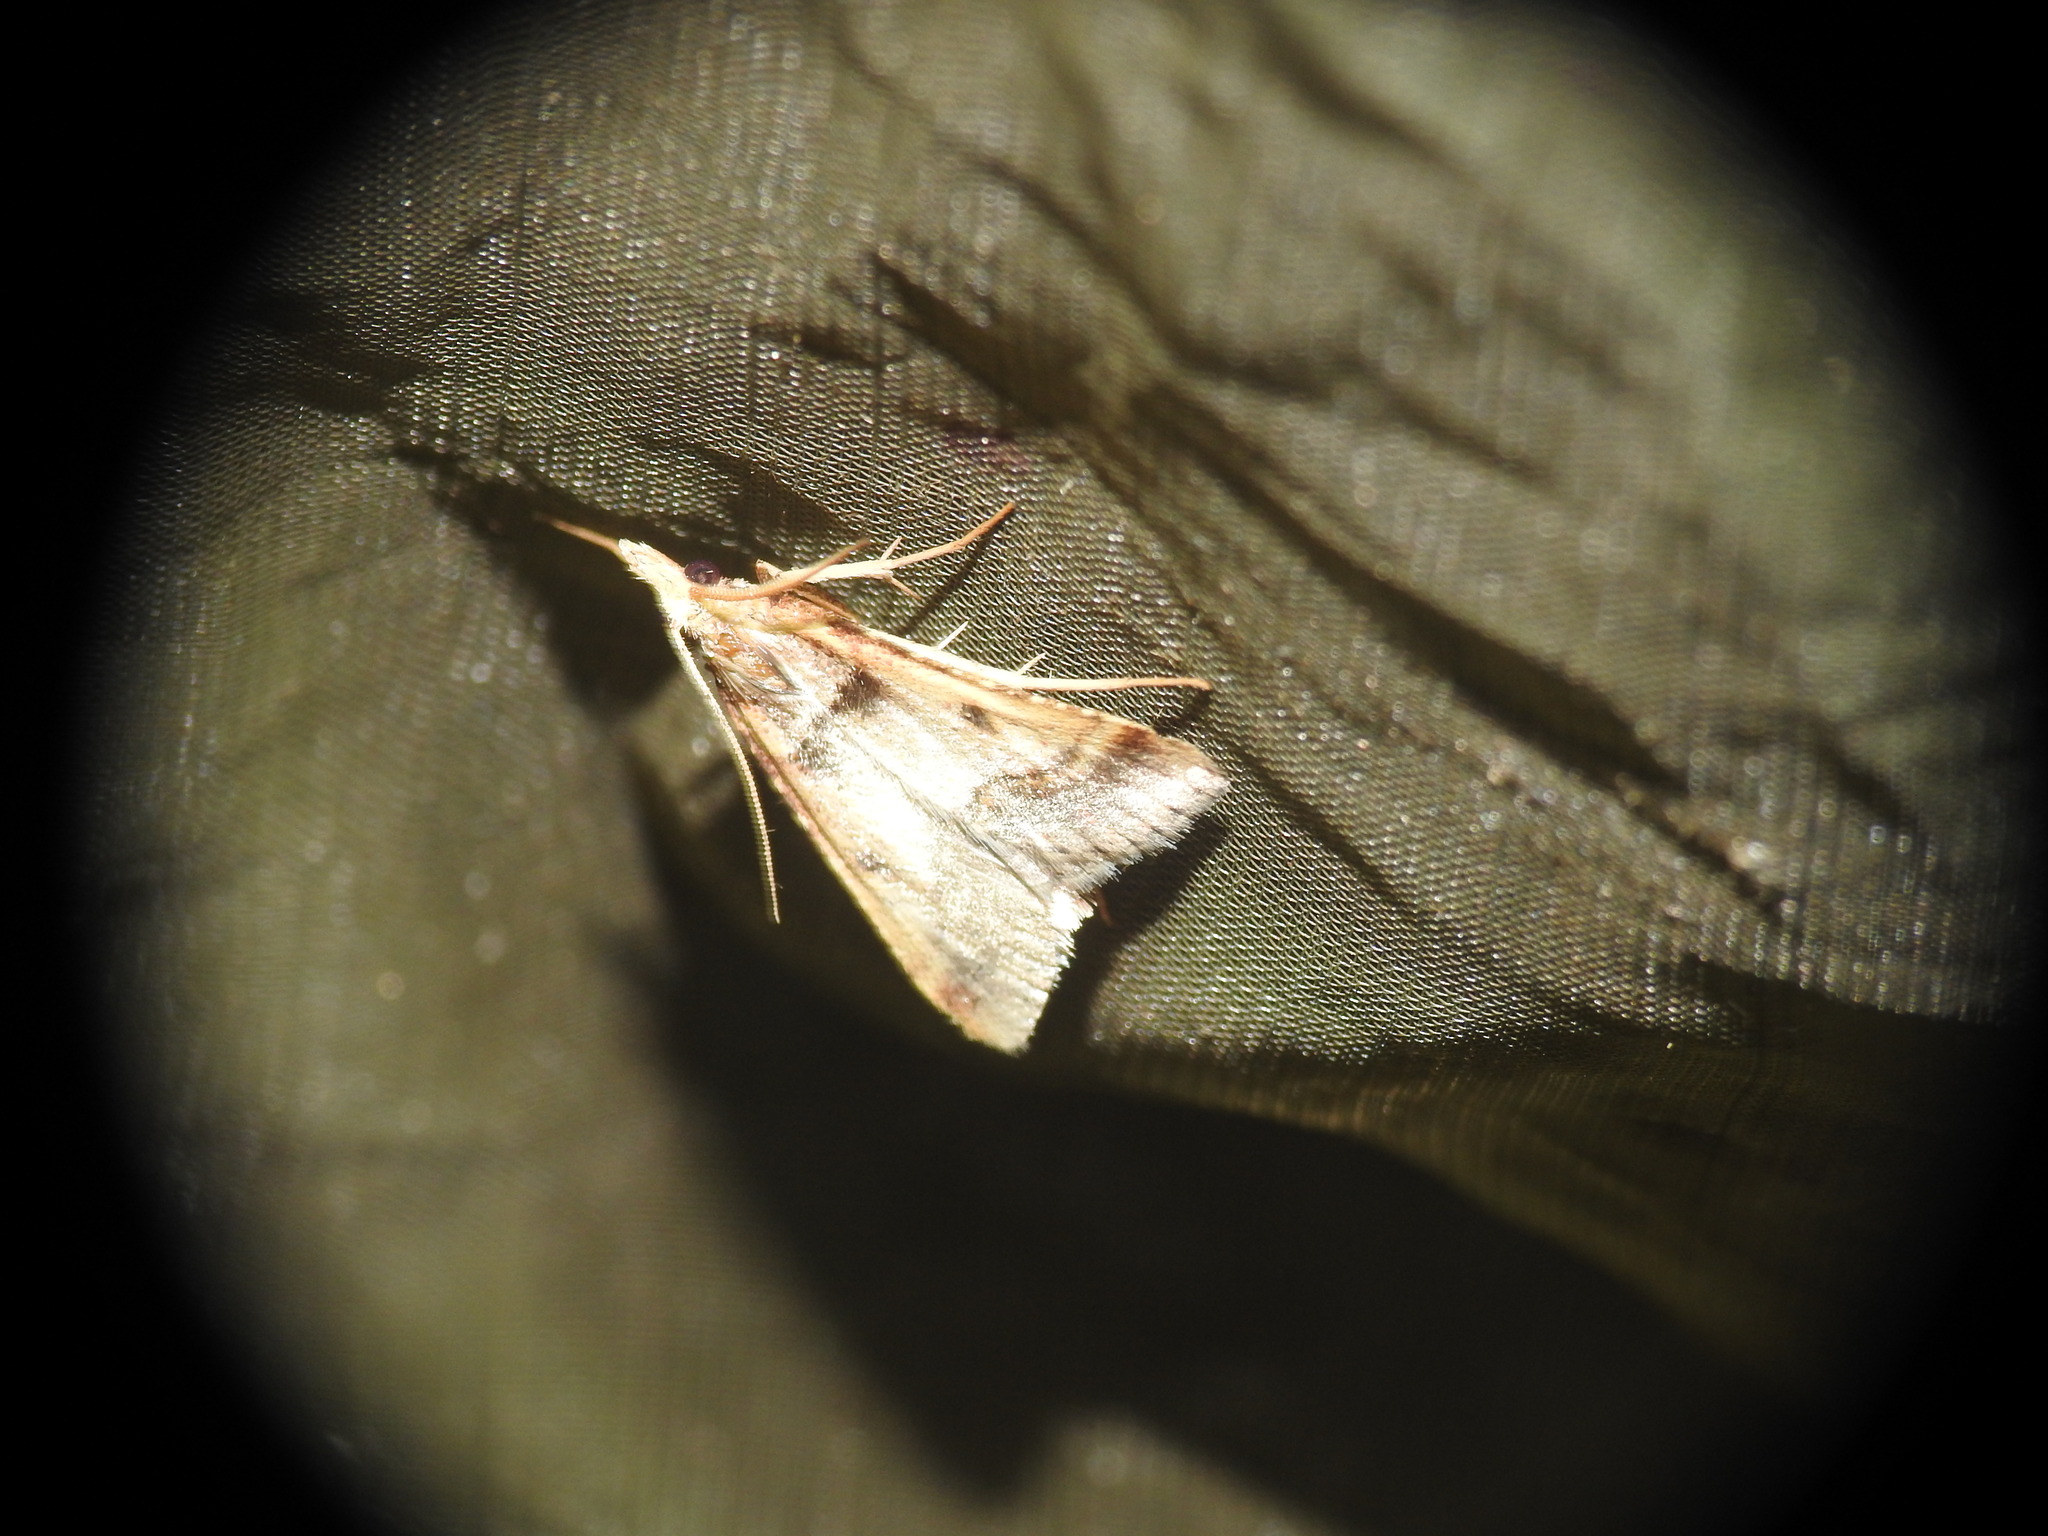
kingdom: Animalia
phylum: Arthropoda
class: Insecta
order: Lepidoptera
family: Pyralidae
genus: Stemmatophora
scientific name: Stemmatophora brunnealis
